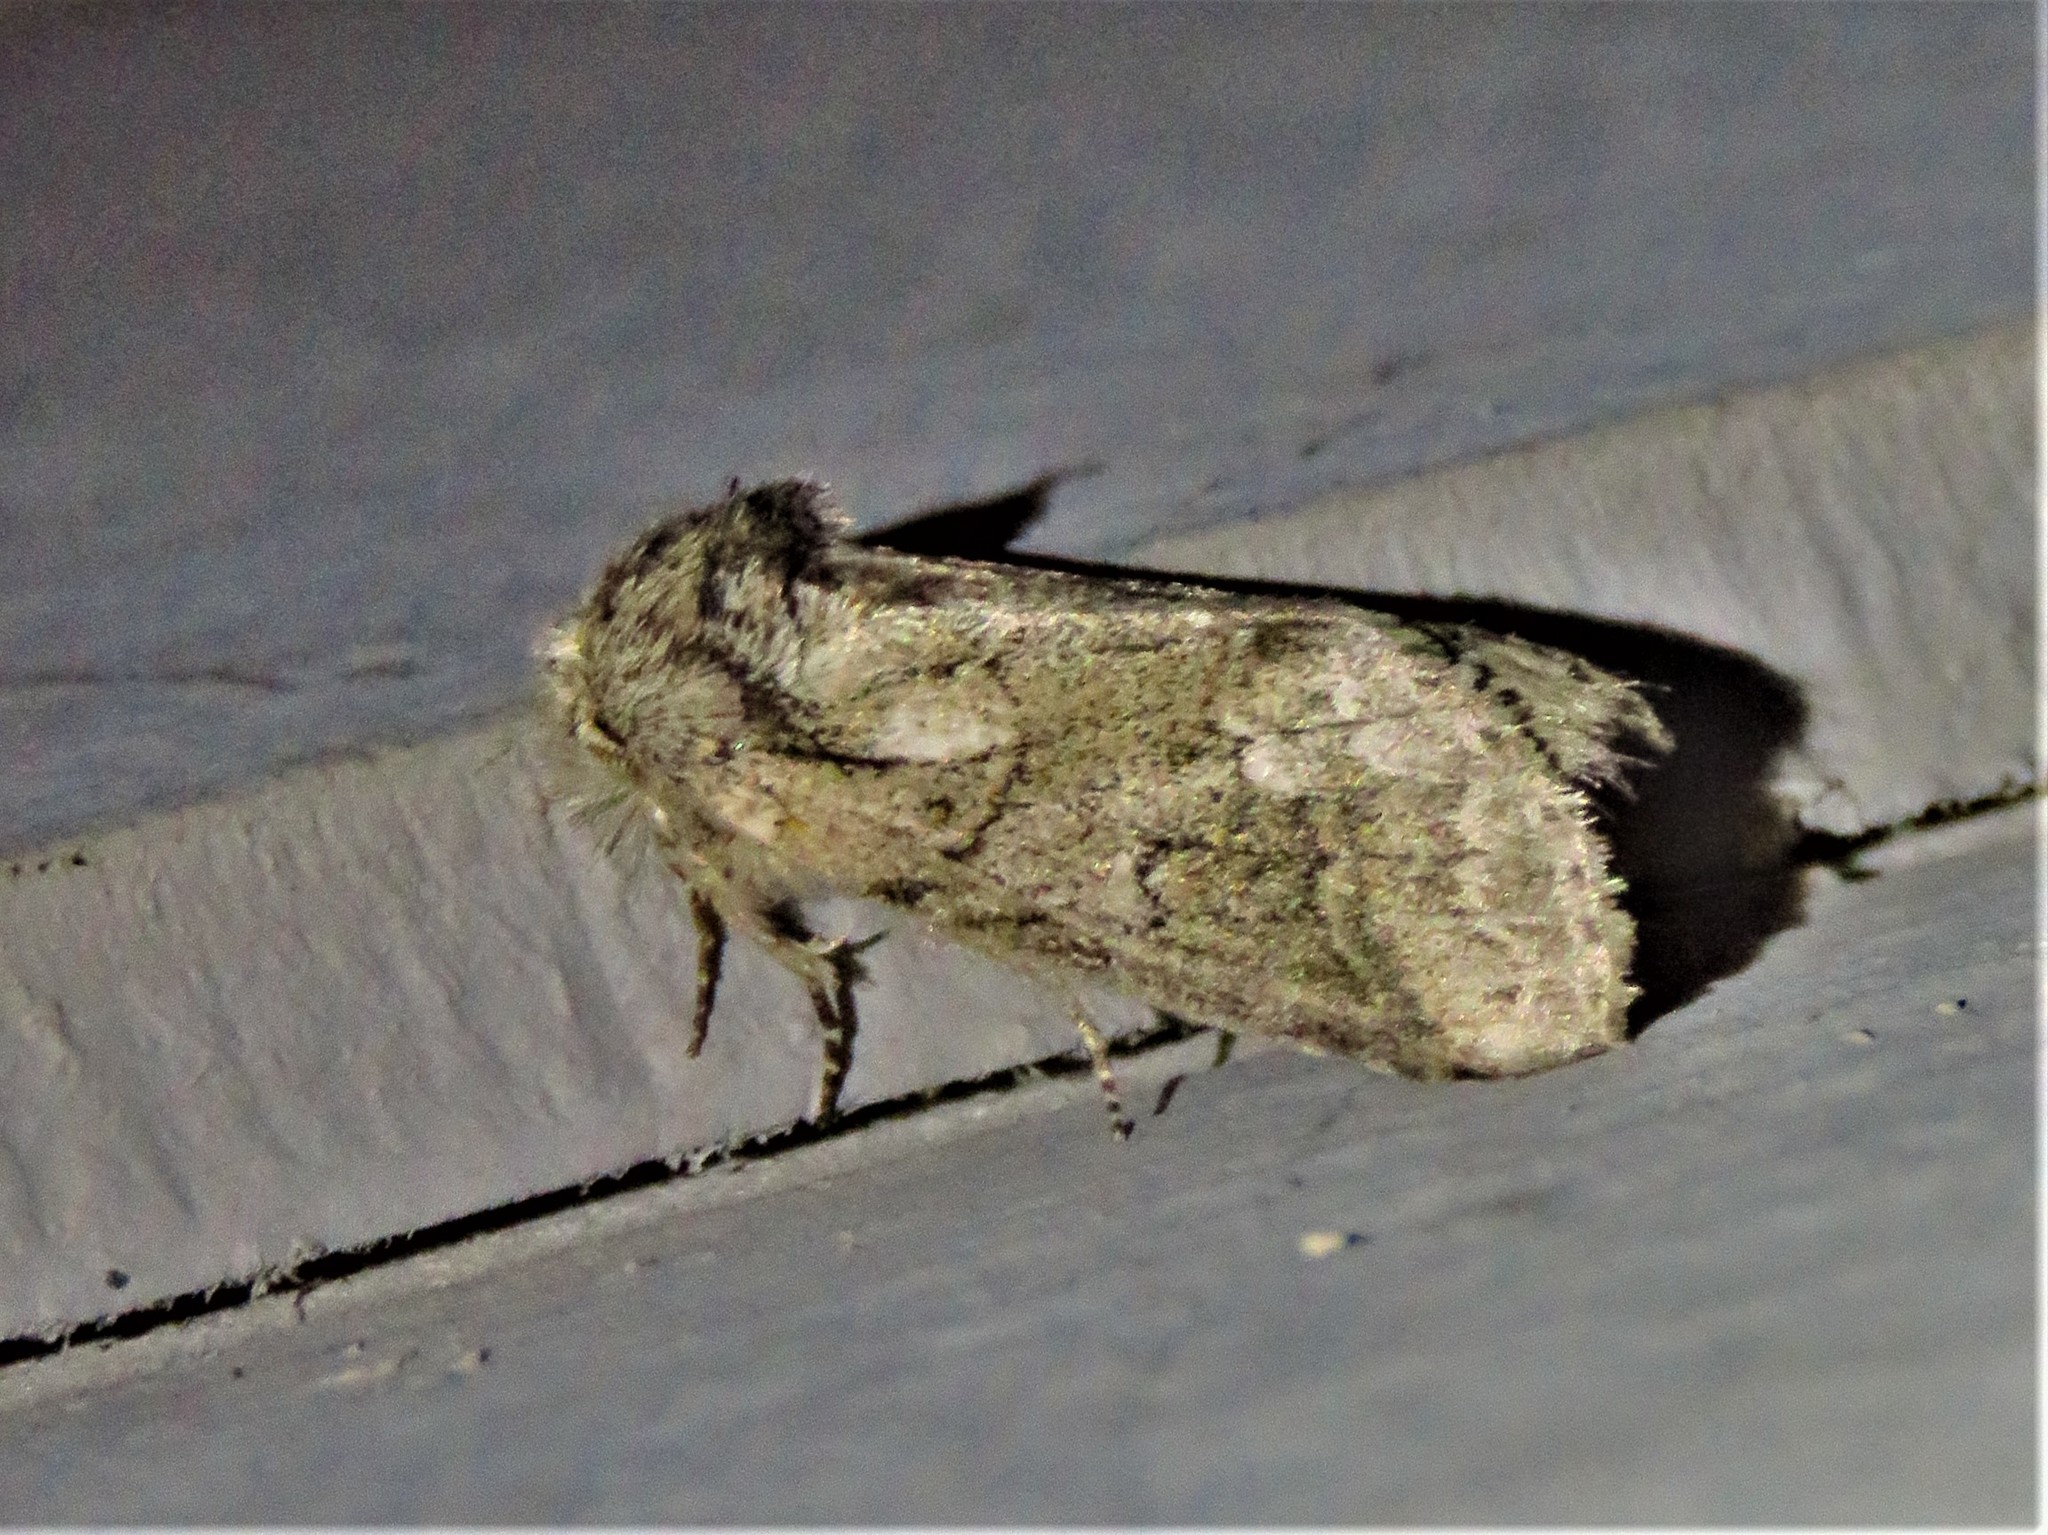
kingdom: Animalia
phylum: Arthropoda
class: Insecta
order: Lepidoptera
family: Notodontidae
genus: Lochmaeus
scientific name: Lochmaeus bilineata
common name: Double-lined prominent
